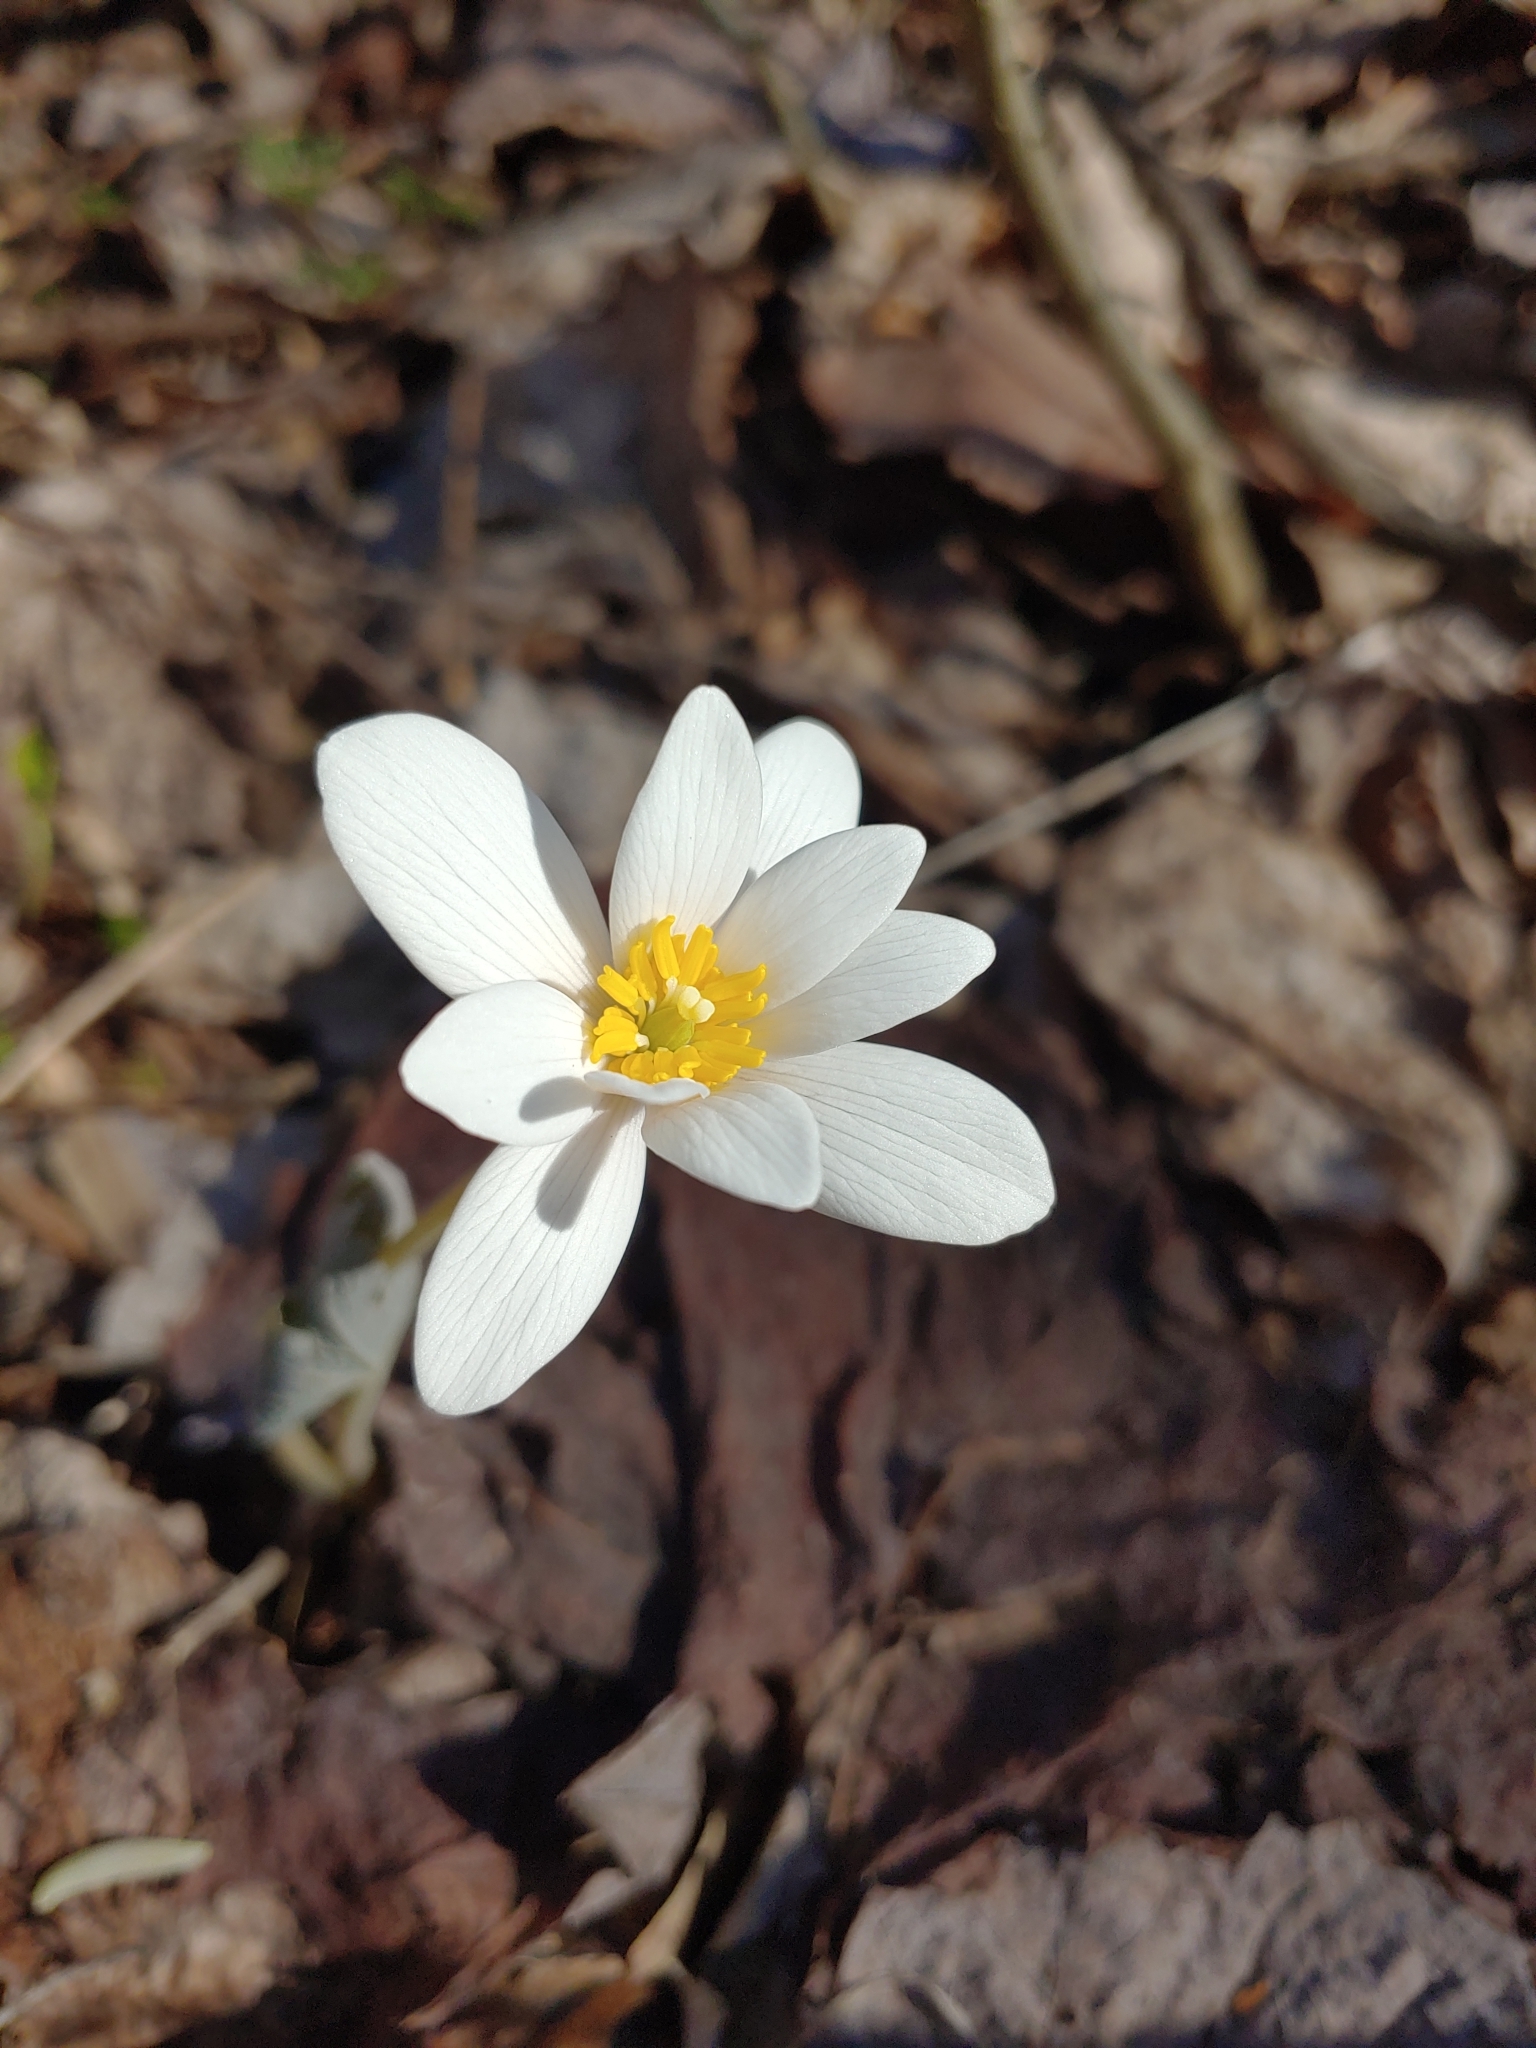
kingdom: Plantae
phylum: Tracheophyta
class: Magnoliopsida
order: Ranunculales
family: Papaveraceae
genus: Sanguinaria
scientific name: Sanguinaria canadensis
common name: Bloodroot
